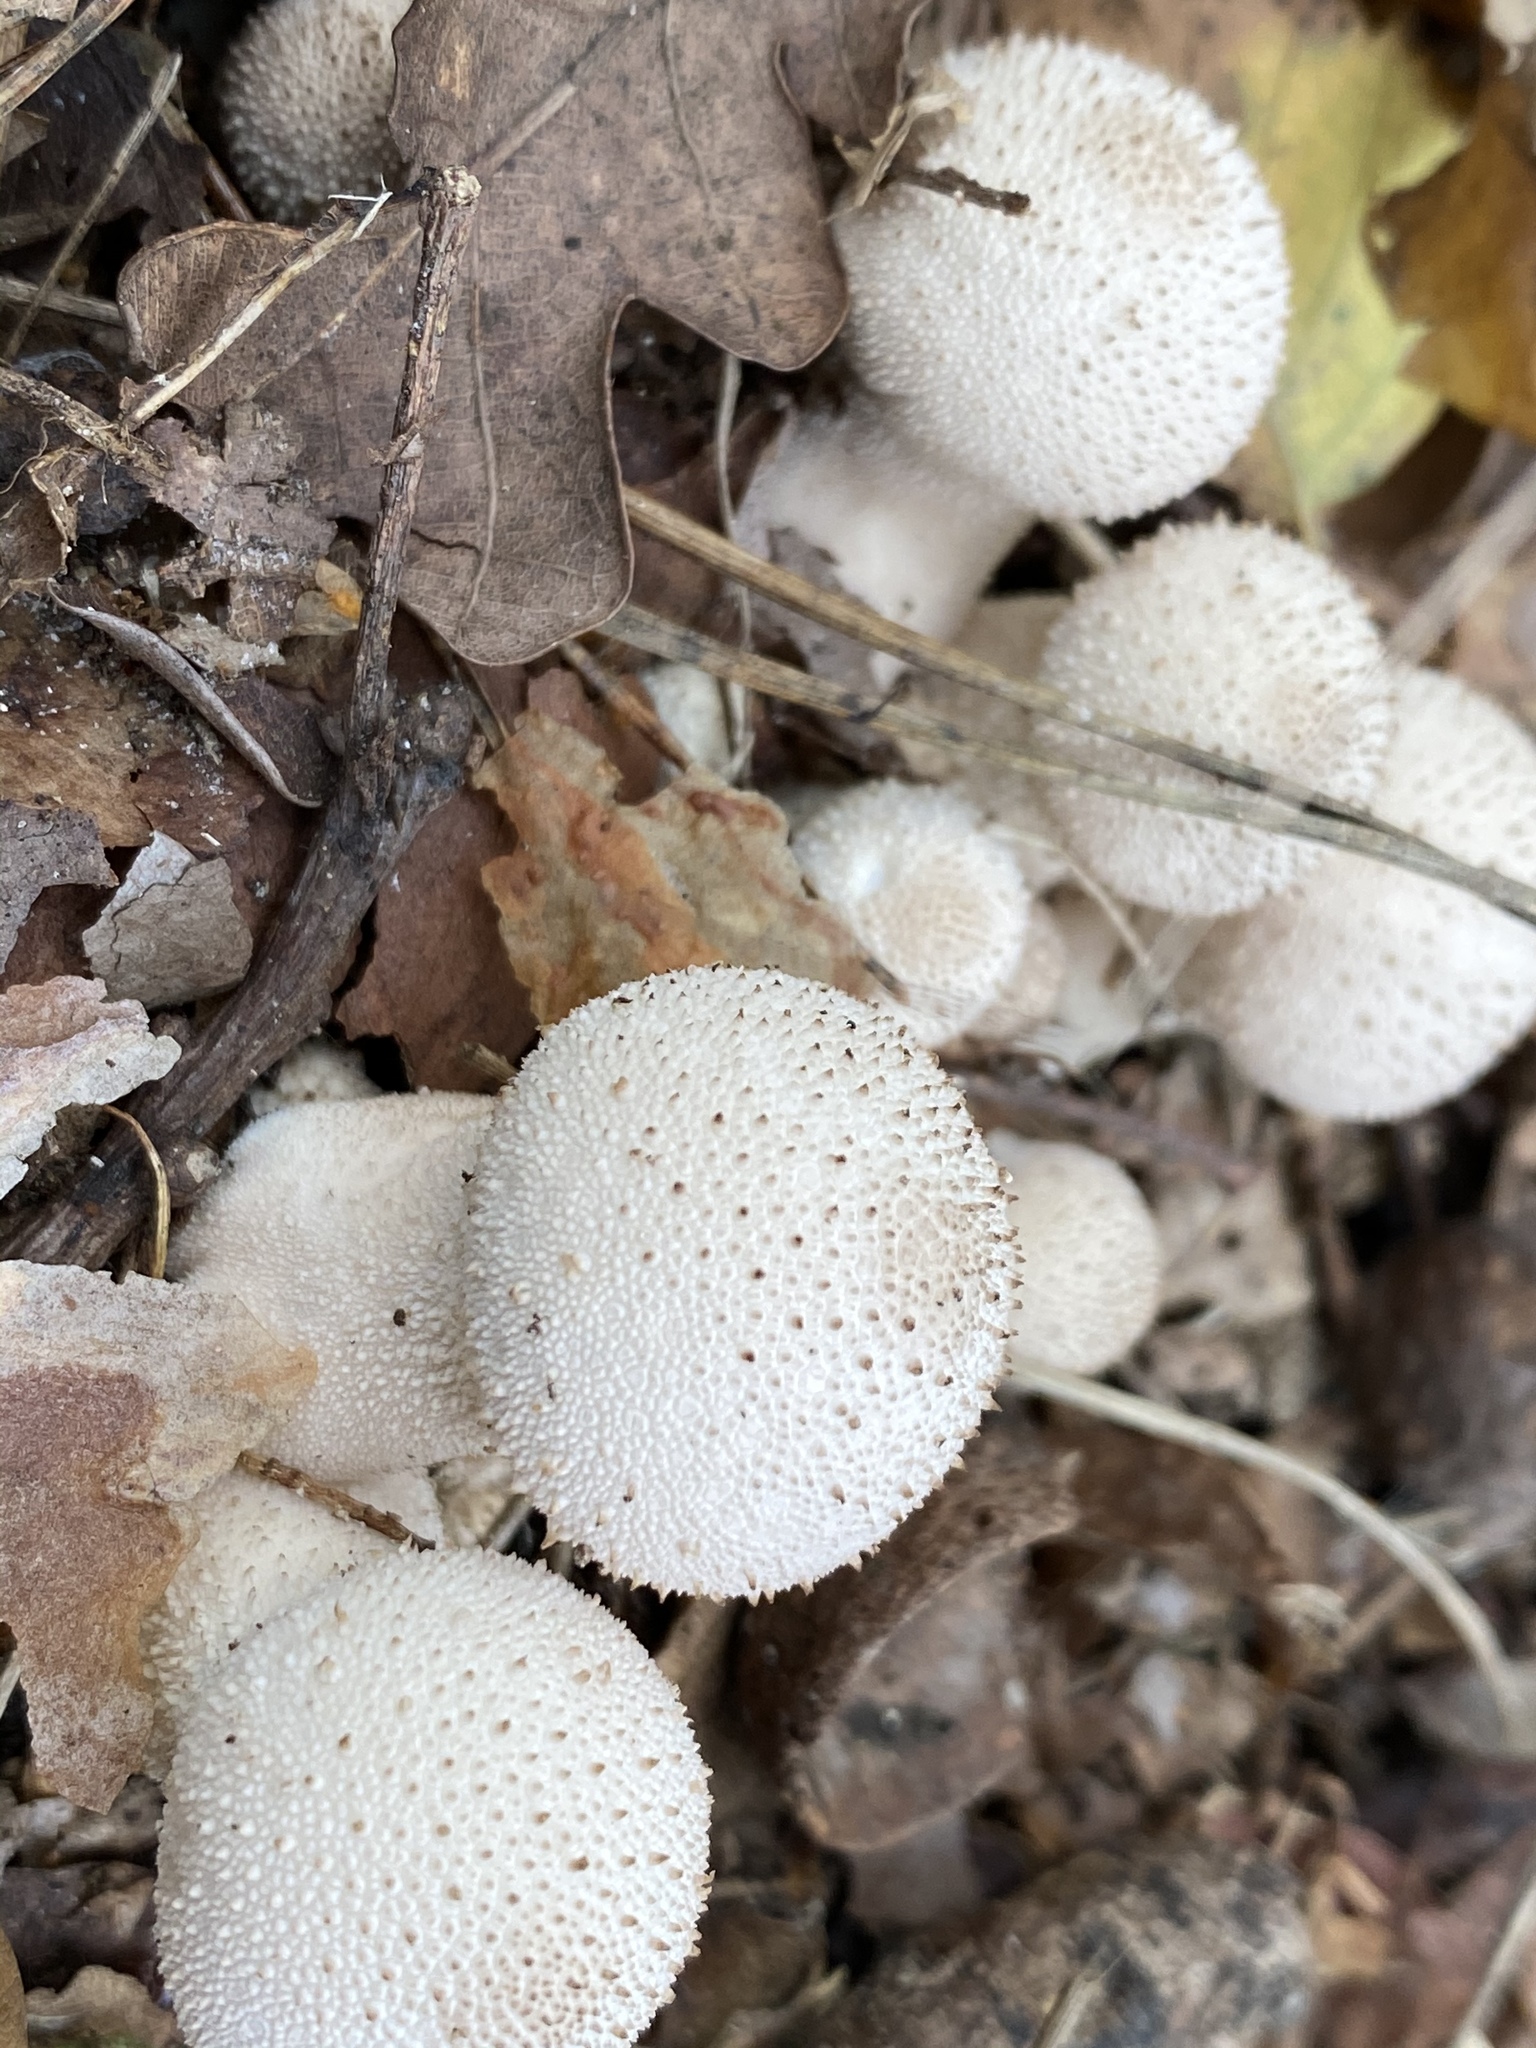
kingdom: Fungi
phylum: Basidiomycota
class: Agaricomycetes
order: Agaricales
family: Lycoperdaceae
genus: Lycoperdon
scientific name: Lycoperdon perlatum
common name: Common puffball
